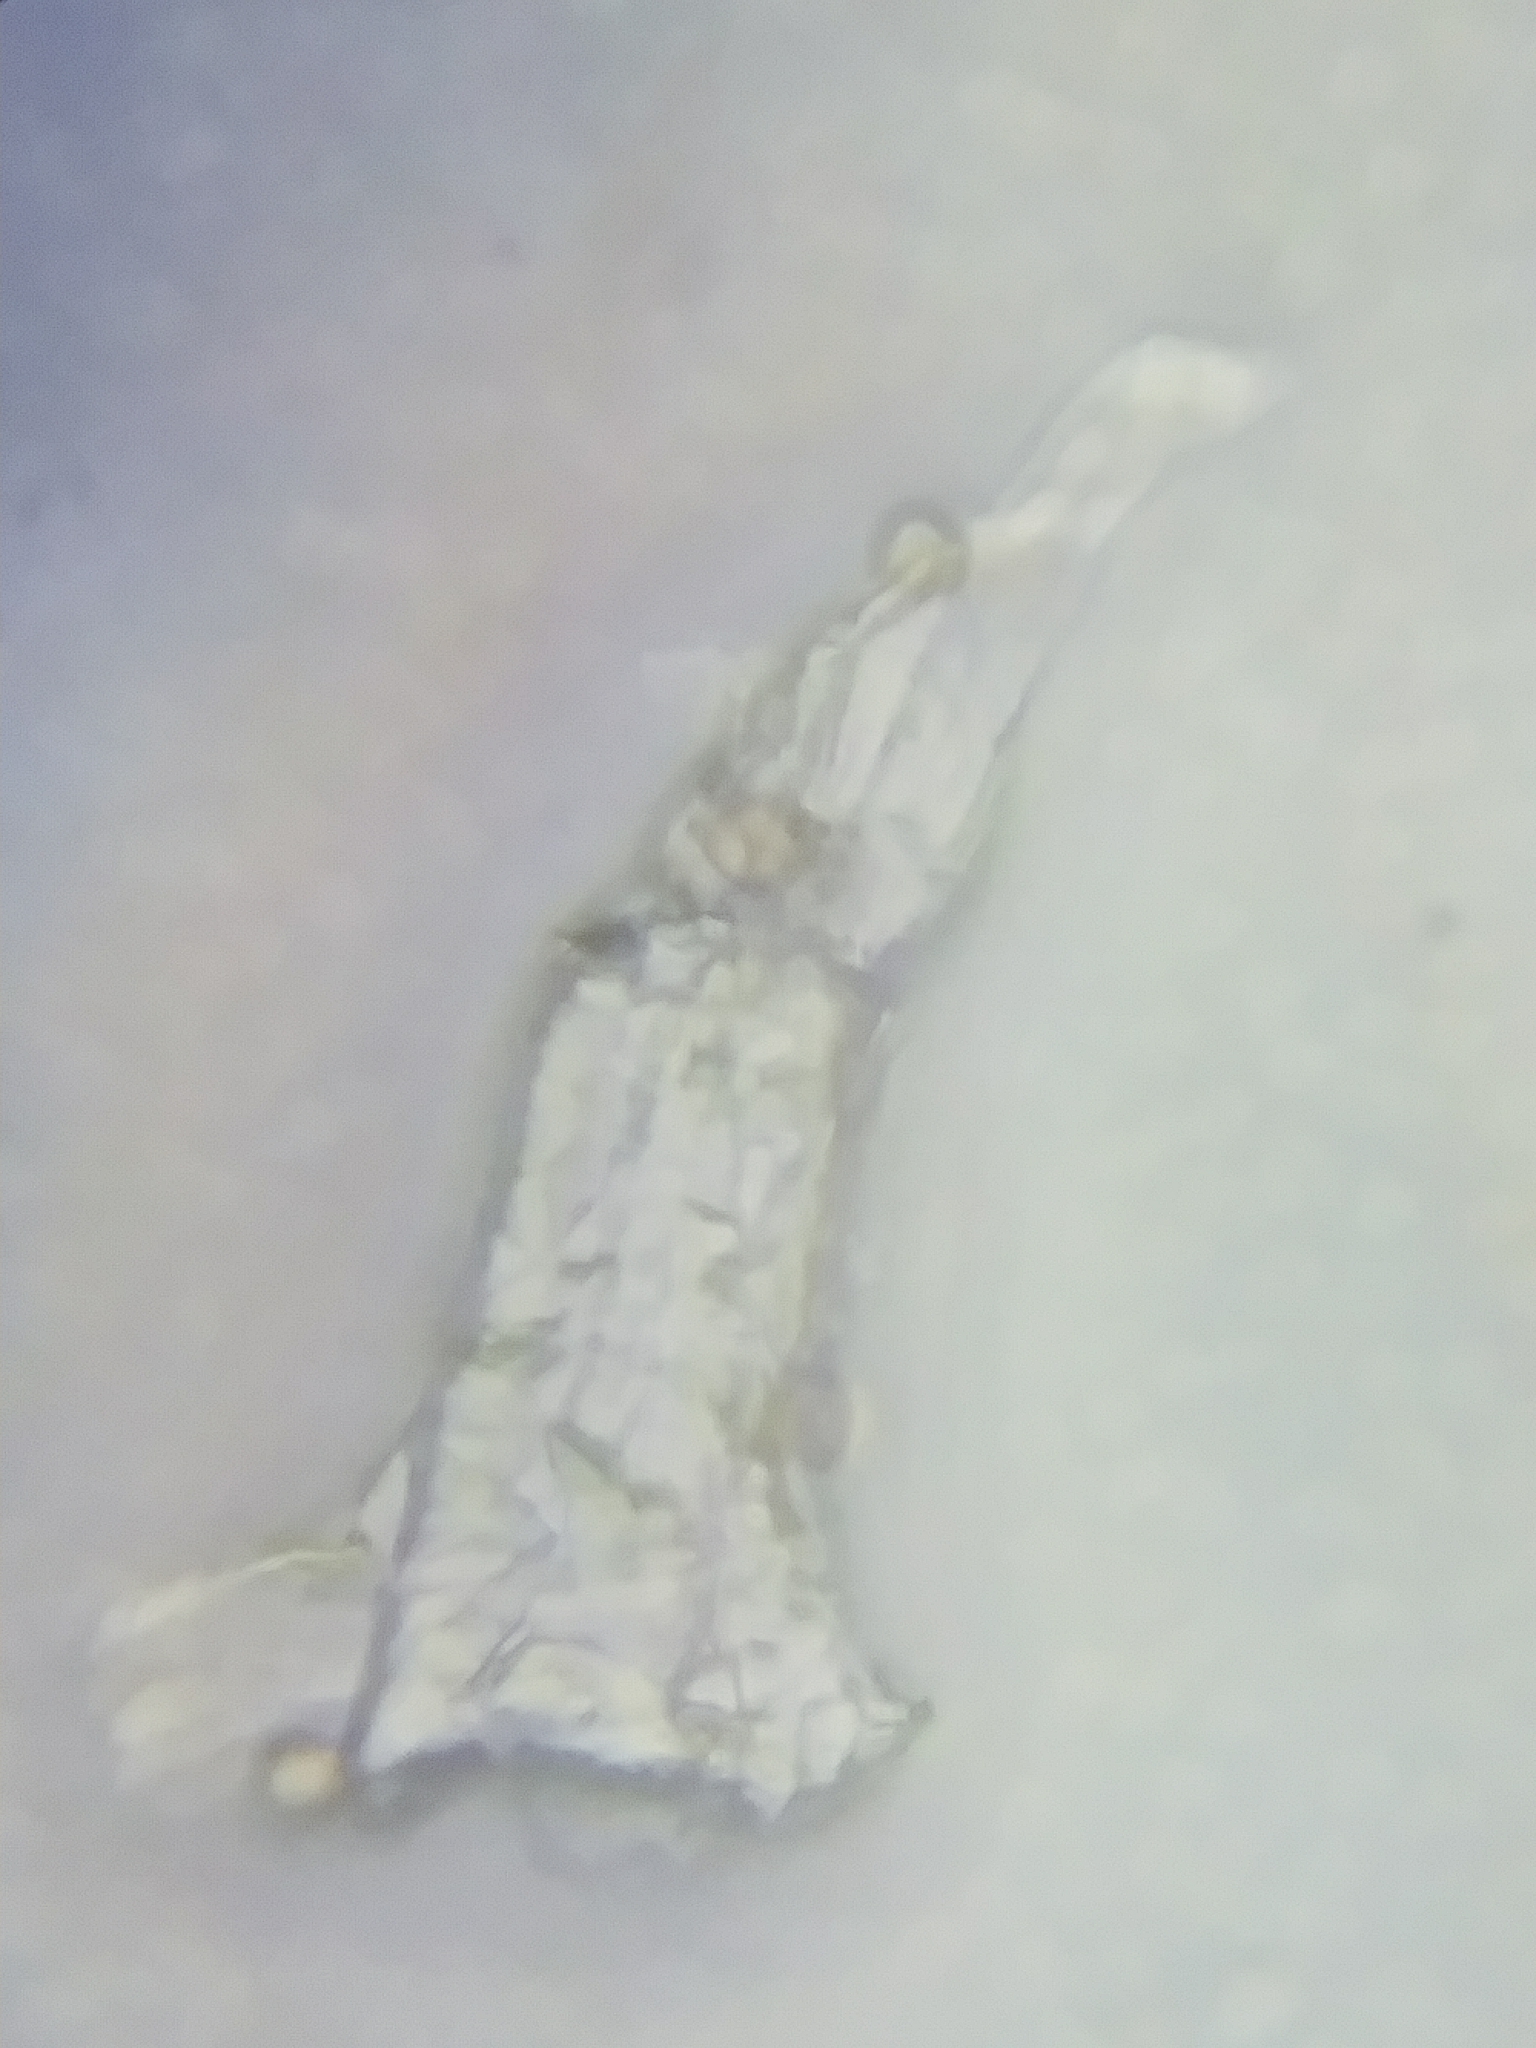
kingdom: Protozoa
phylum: Mycetozoa
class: Myxomycetes
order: Physarales
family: Physaraceae
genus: Physarum
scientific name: Physarum polycephalum
